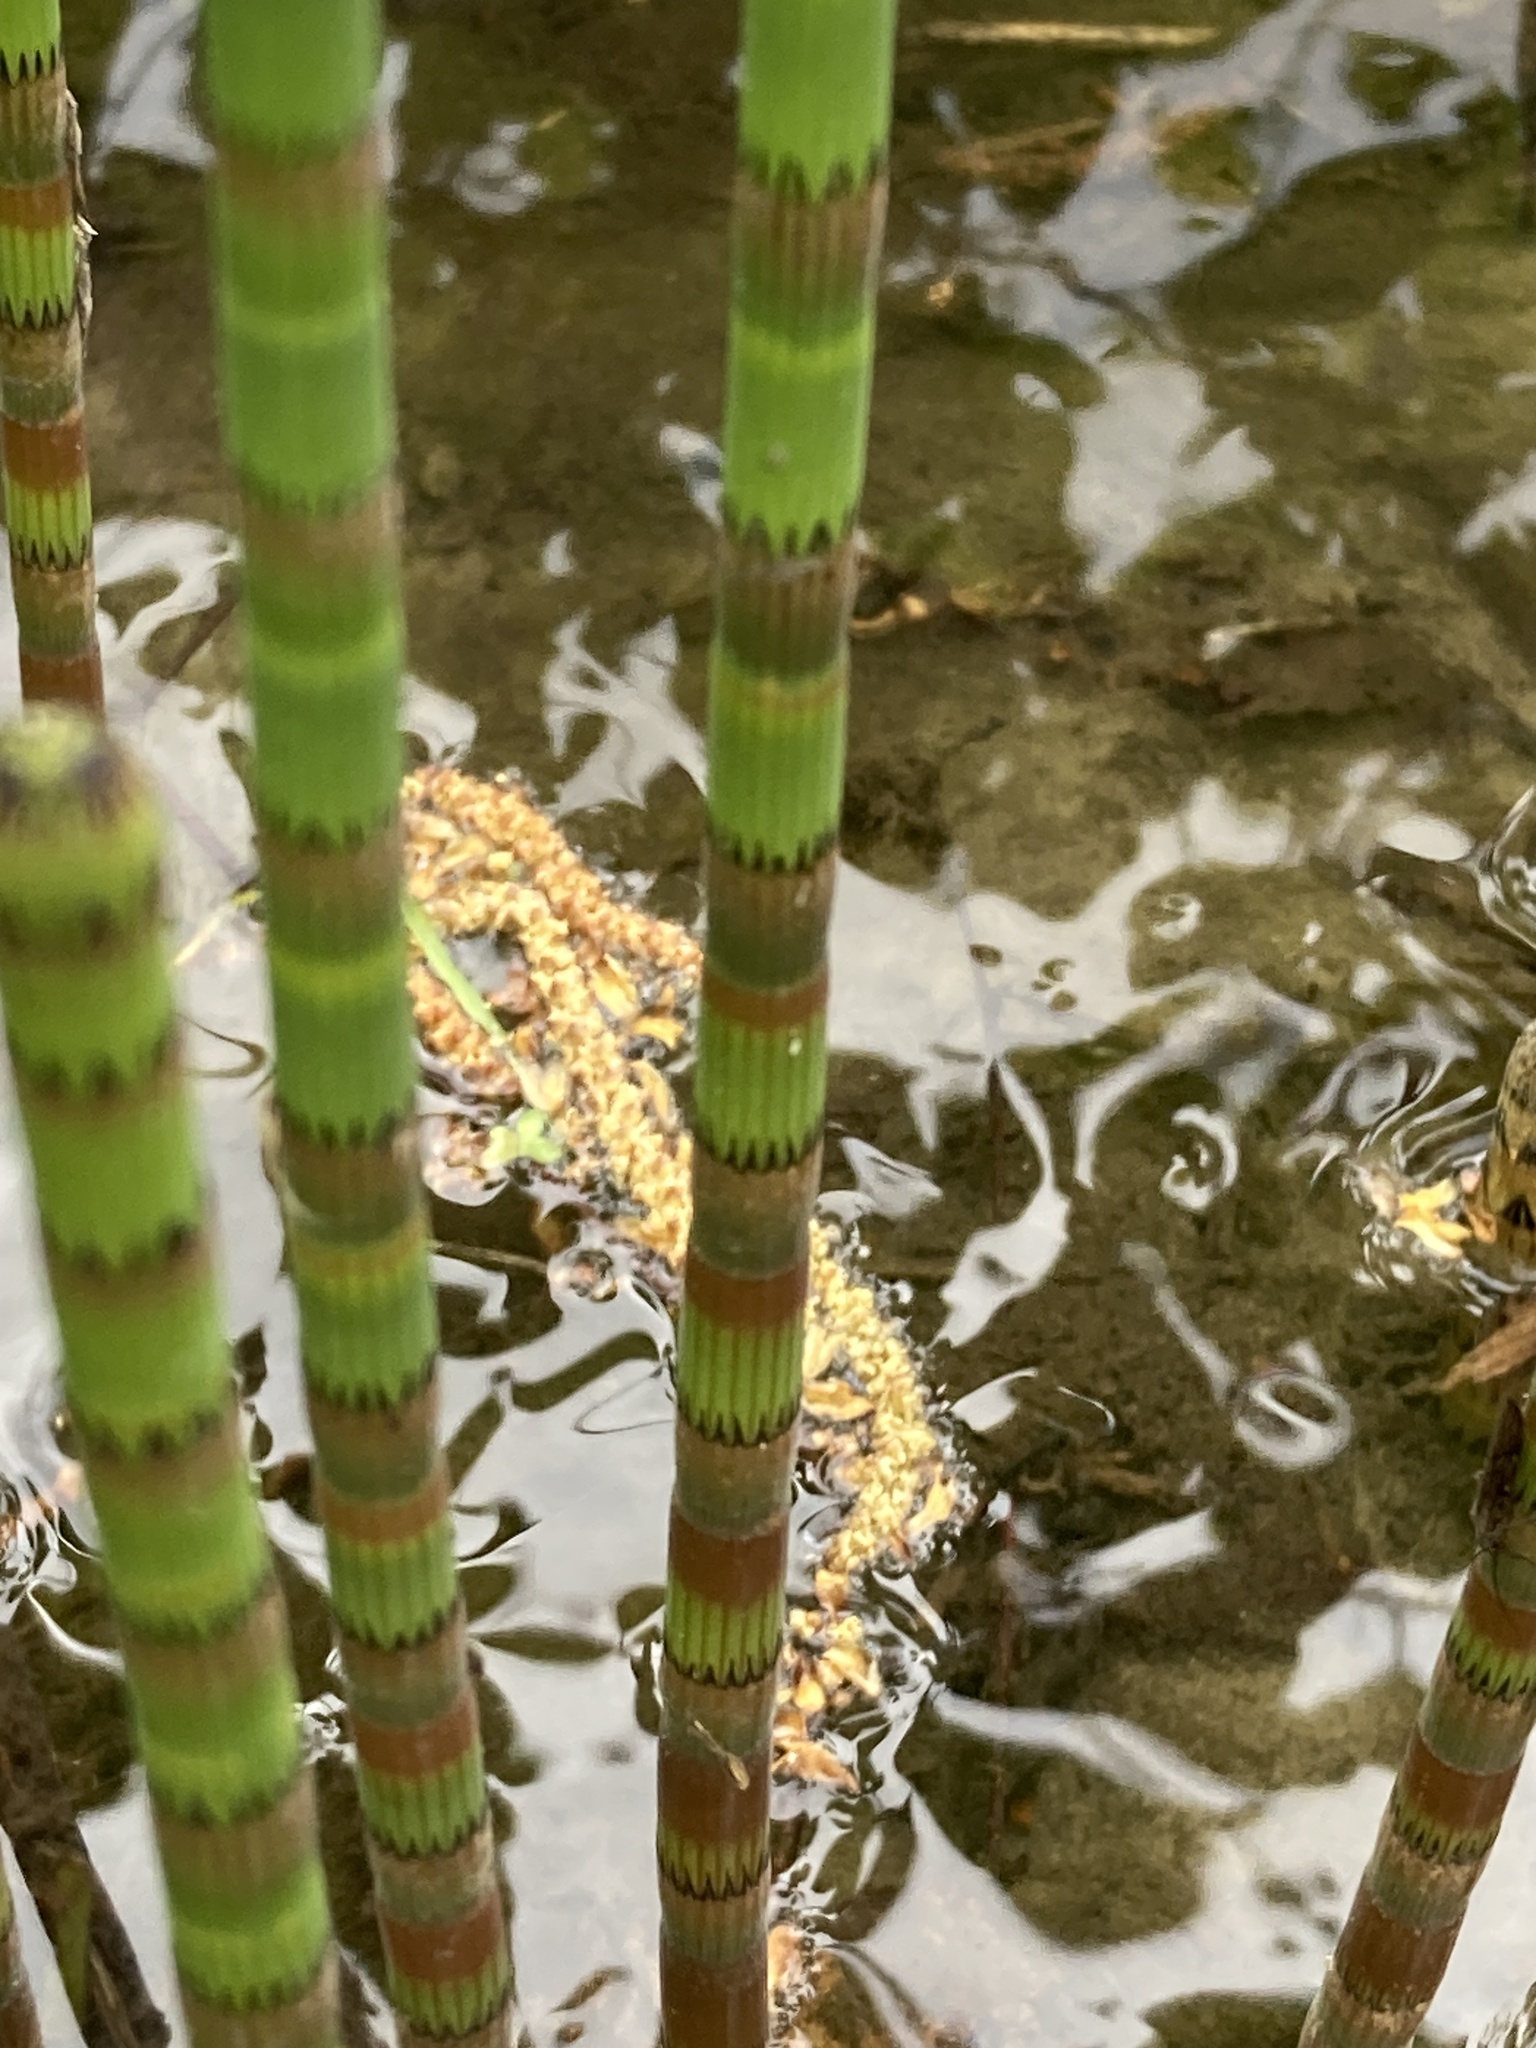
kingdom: Plantae
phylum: Tracheophyta
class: Polypodiopsida
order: Equisetales
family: Equisetaceae
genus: Equisetum
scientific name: Equisetum fluviatile
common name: Water horsetail
